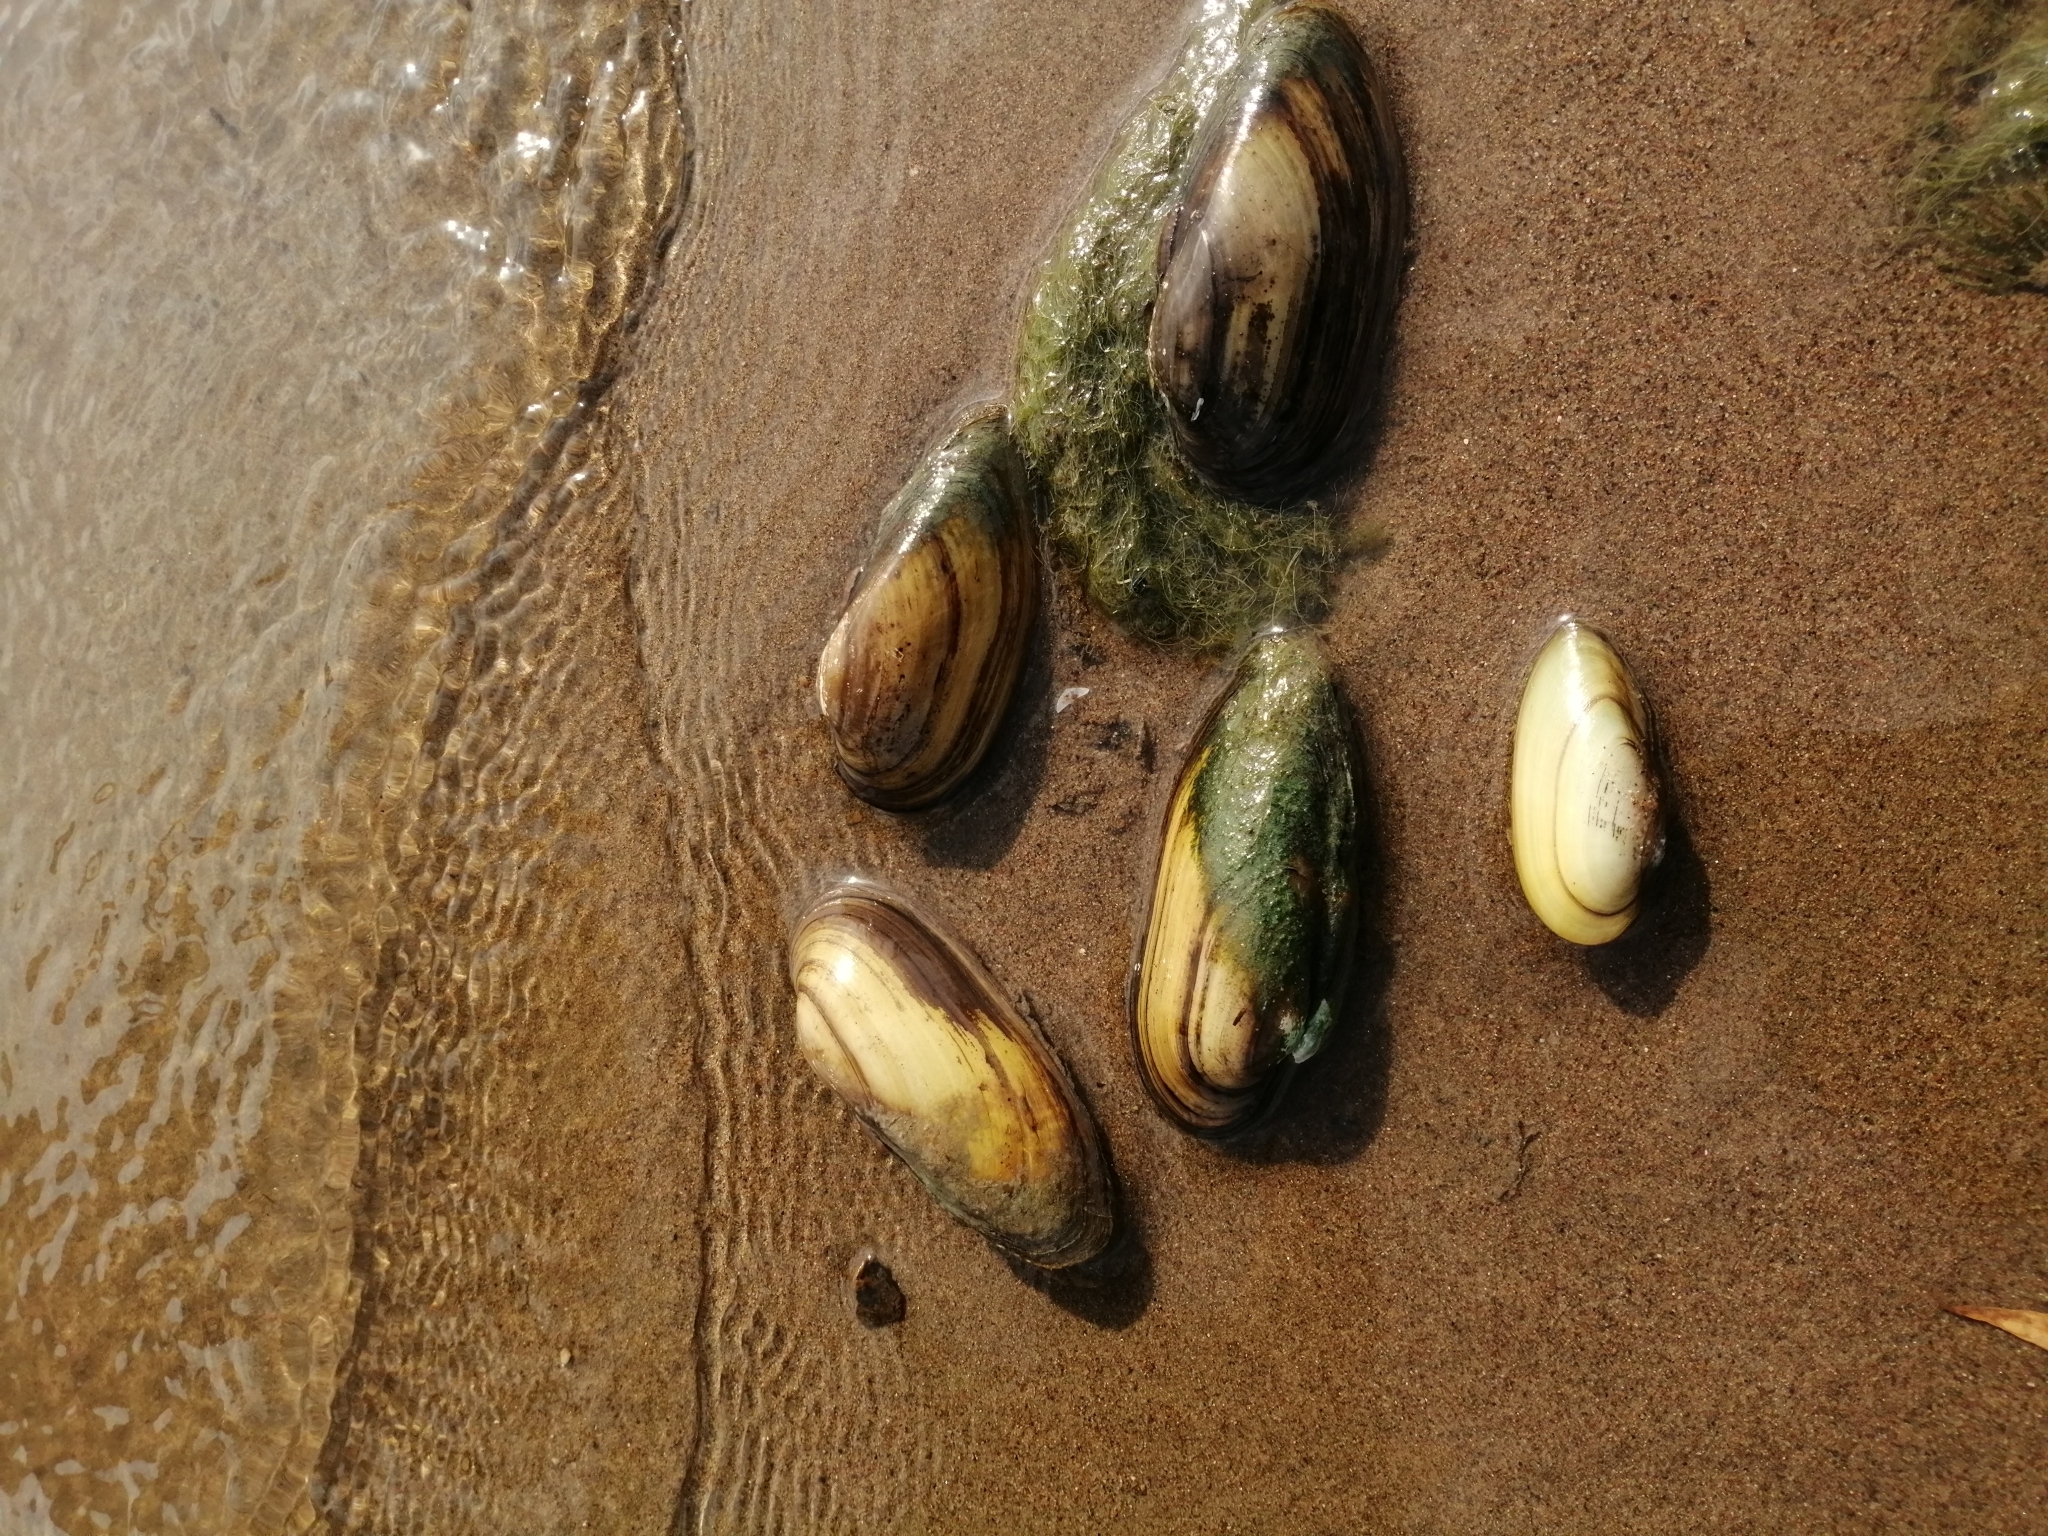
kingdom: Animalia
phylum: Mollusca
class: Bivalvia
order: Unionida
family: Unionidae
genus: Unio
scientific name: Unio pictorum
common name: Painter's mussel
